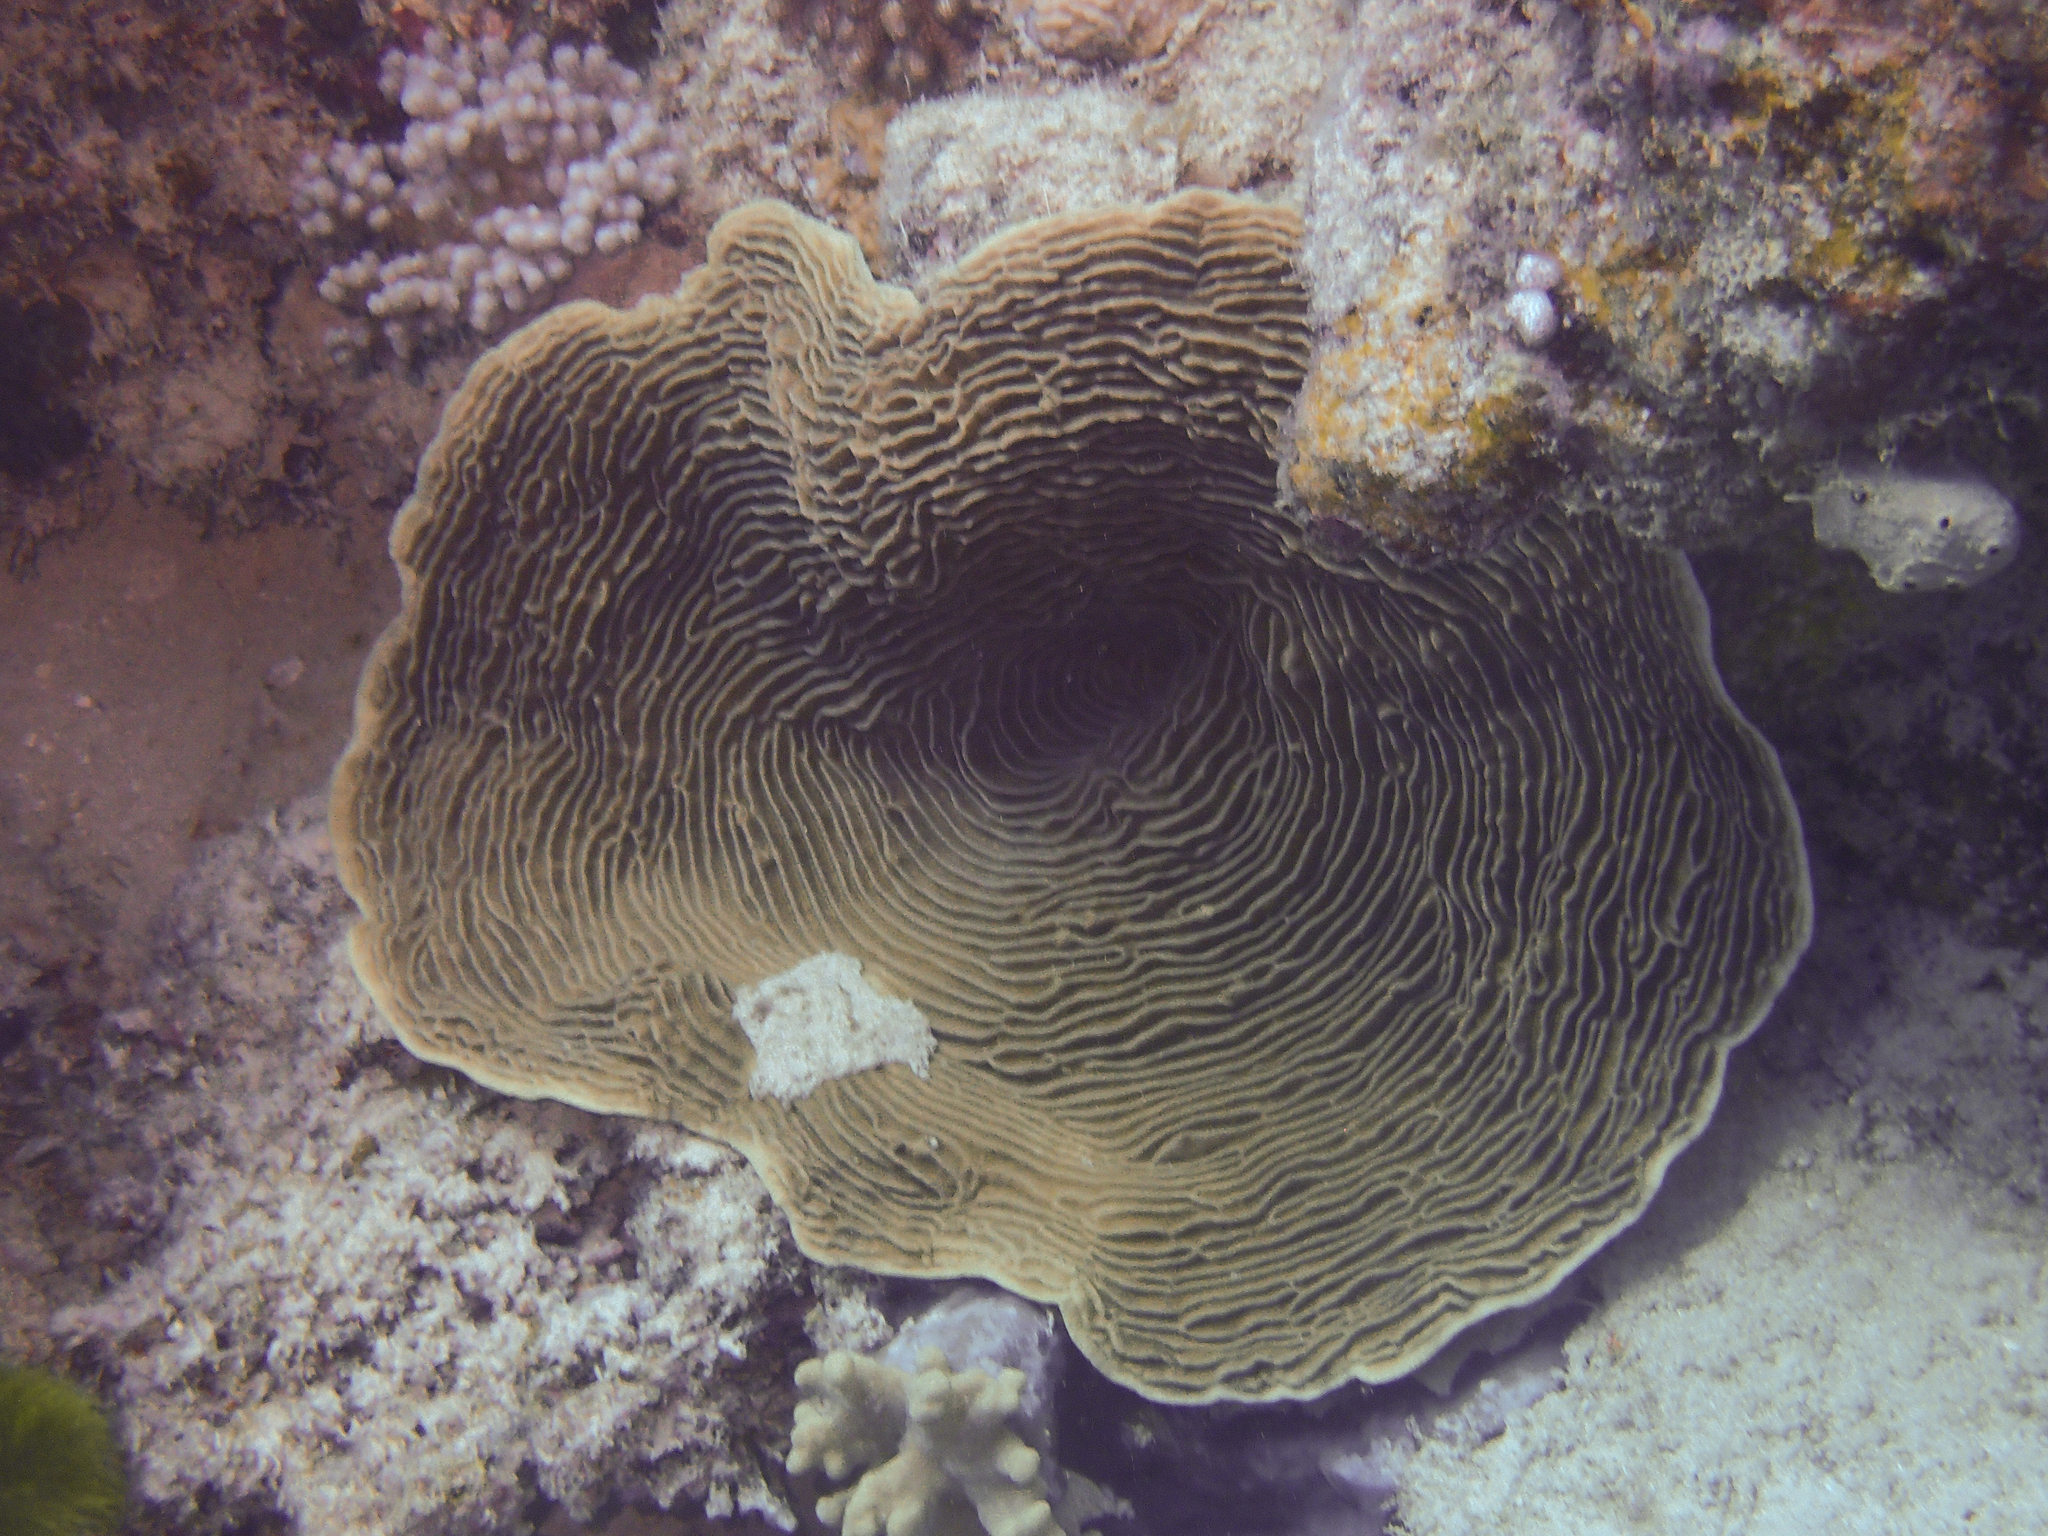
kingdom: Animalia
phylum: Cnidaria
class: Anthozoa
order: Scleractinia
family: Pachyseridae
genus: Pachyseris
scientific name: Pachyseris speciosa
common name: Serpent coral
